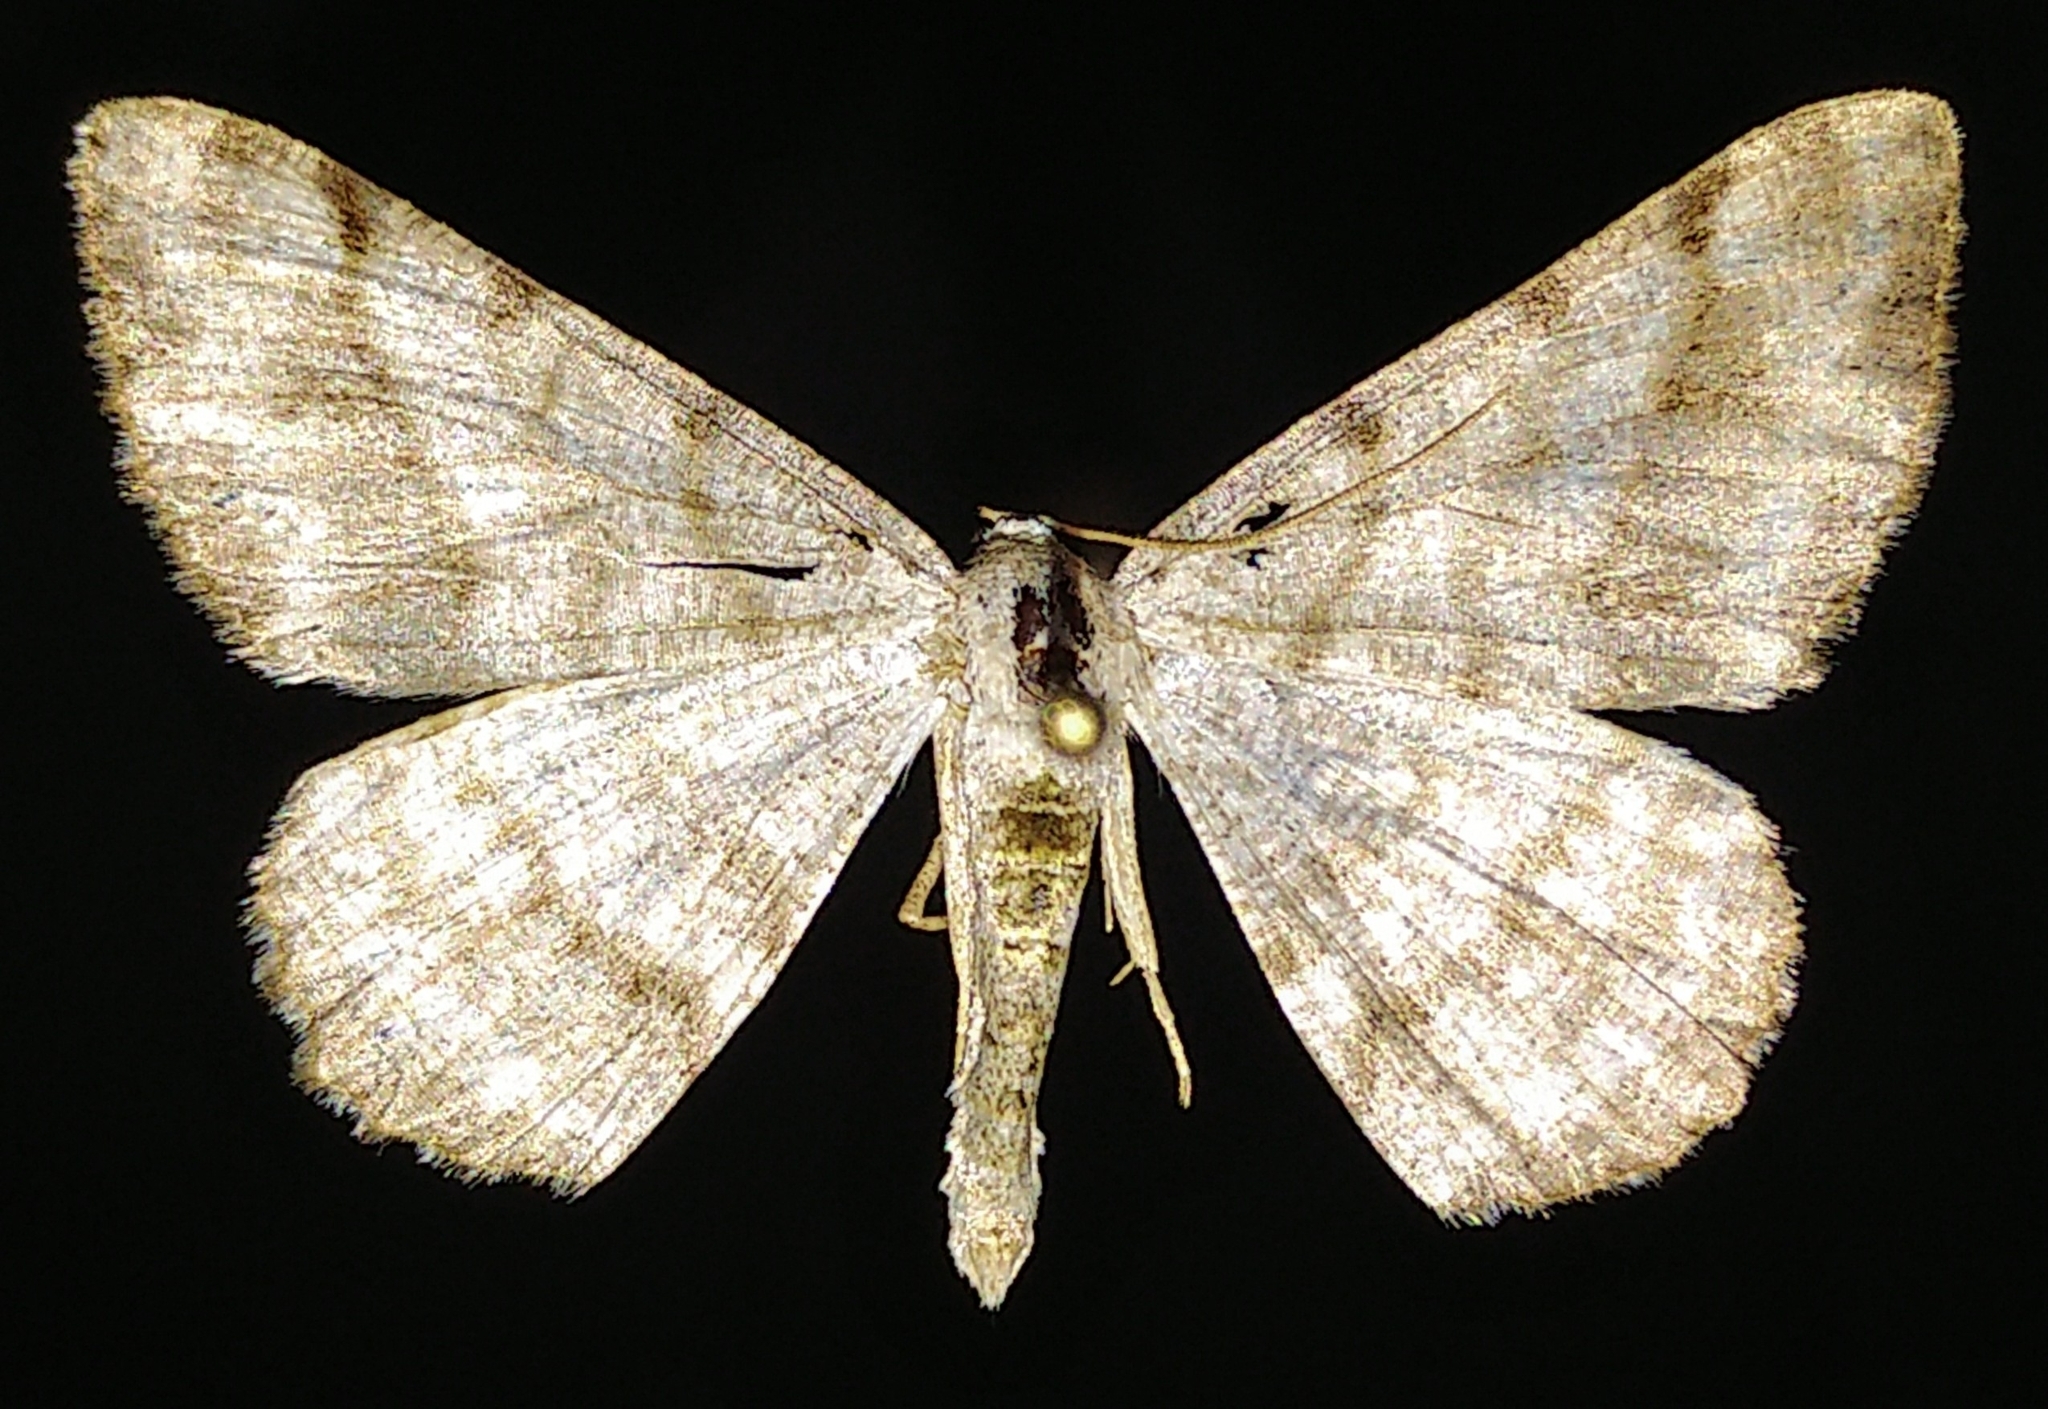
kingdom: Animalia
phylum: Arthropoda
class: Insecta
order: Lepidoptera
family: Geometridae
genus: Digrammia
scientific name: Digrammia denticulata
